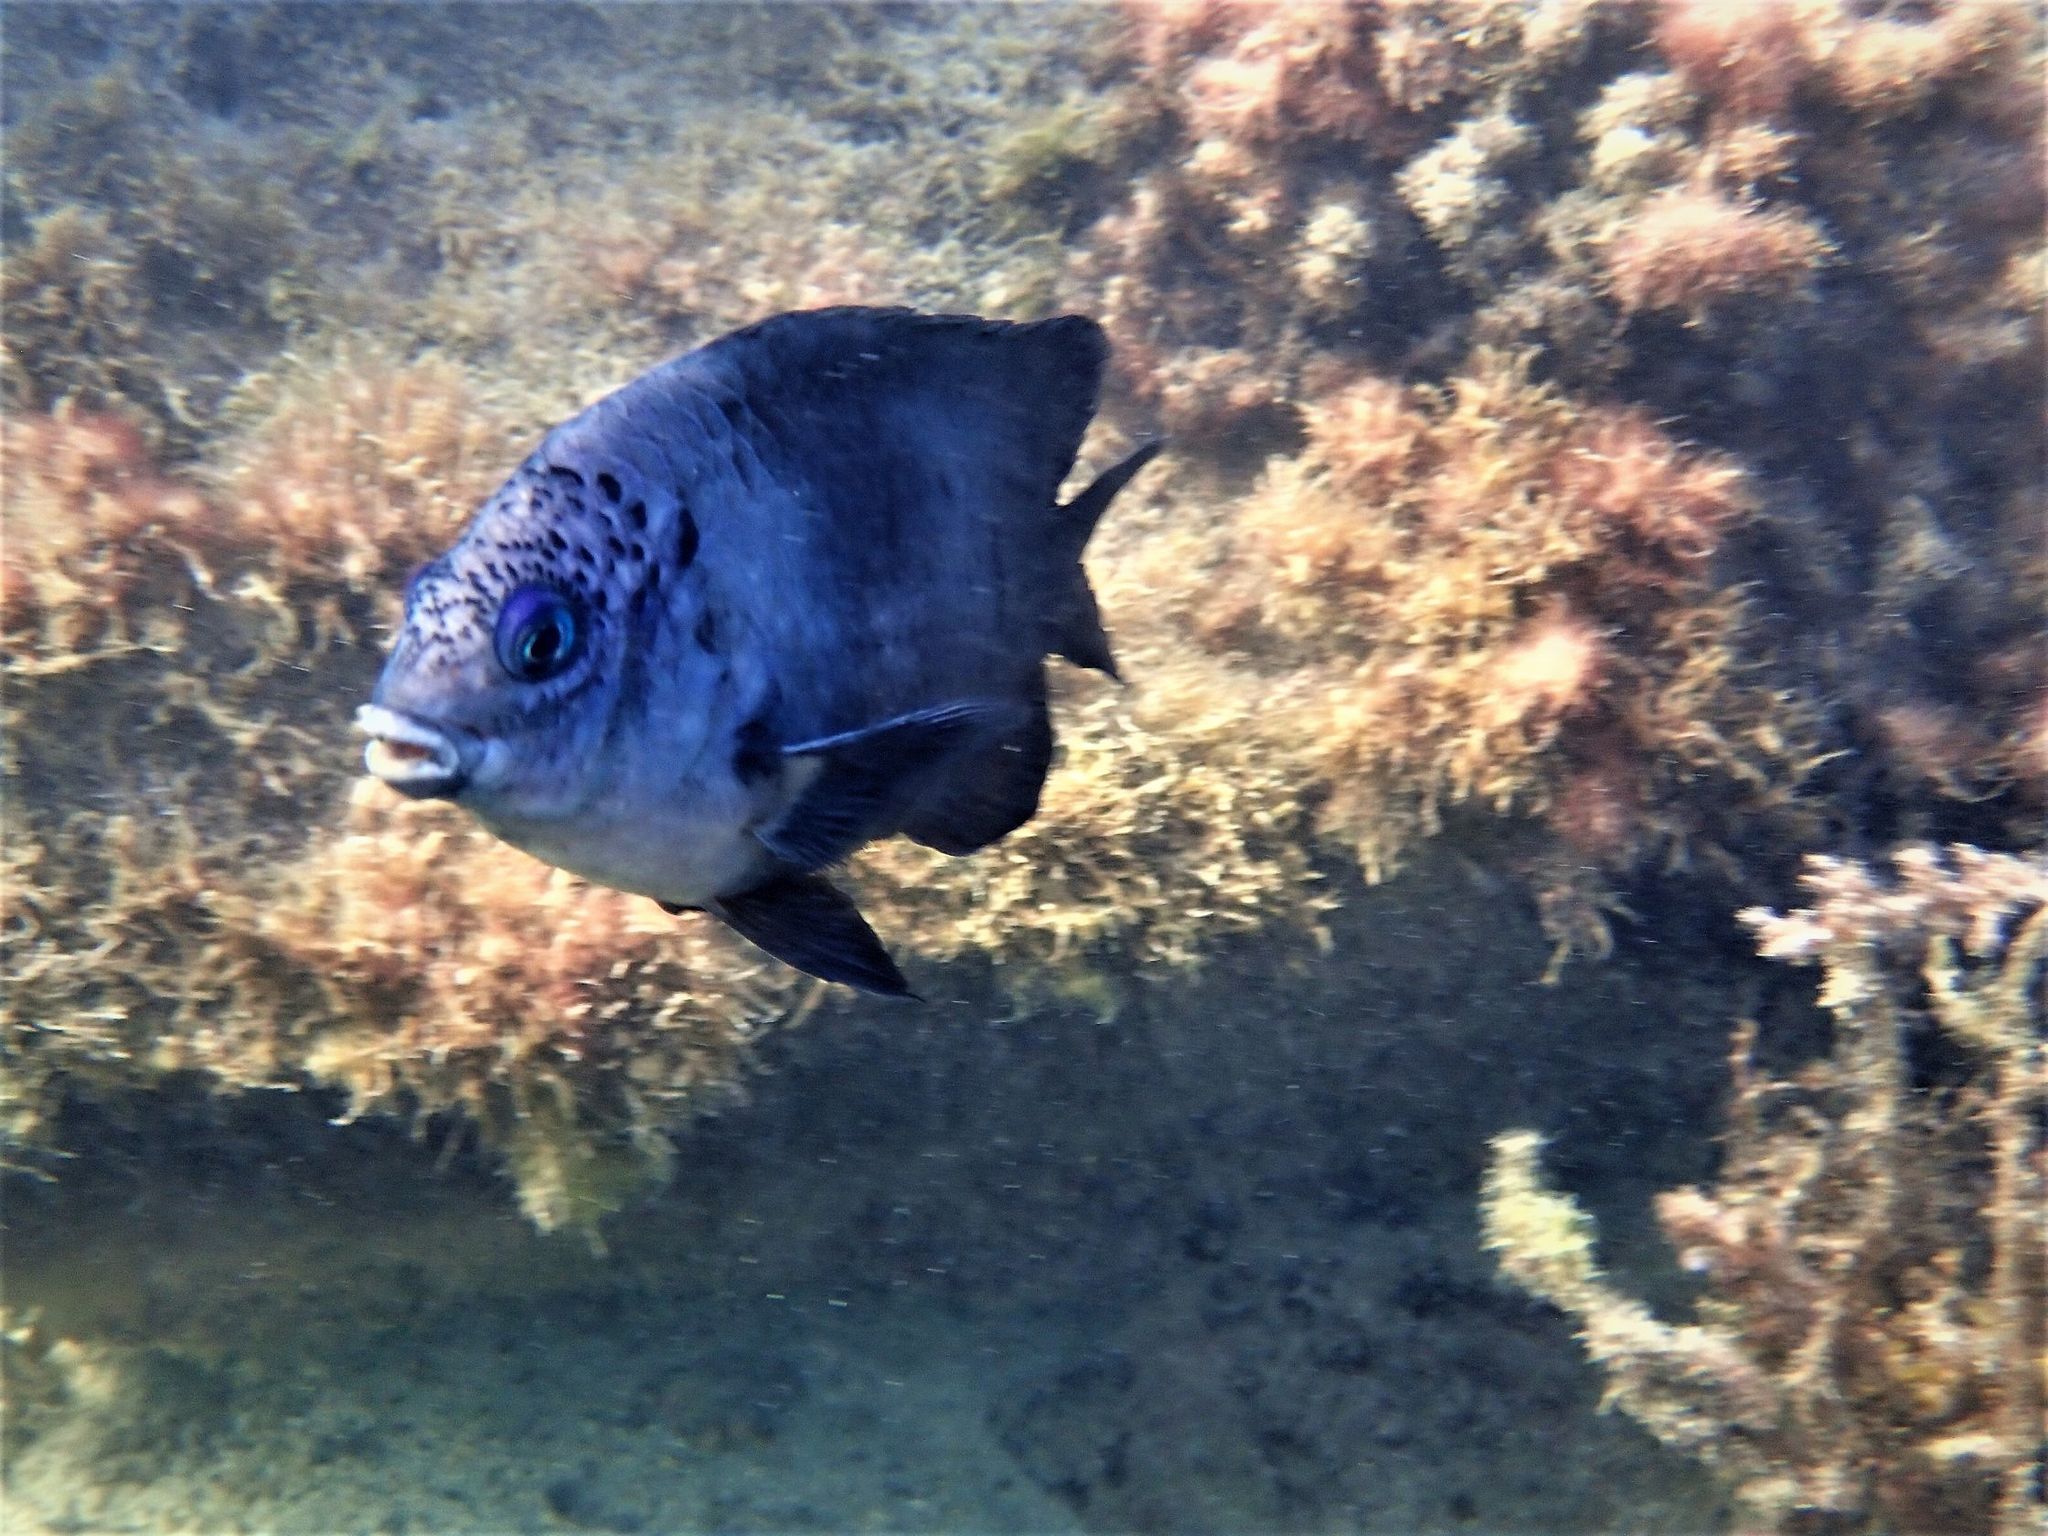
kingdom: Animalia
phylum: Chordata
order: Perciformes
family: Pomacentridae
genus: Stegastes
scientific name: Stegastes limbatus
